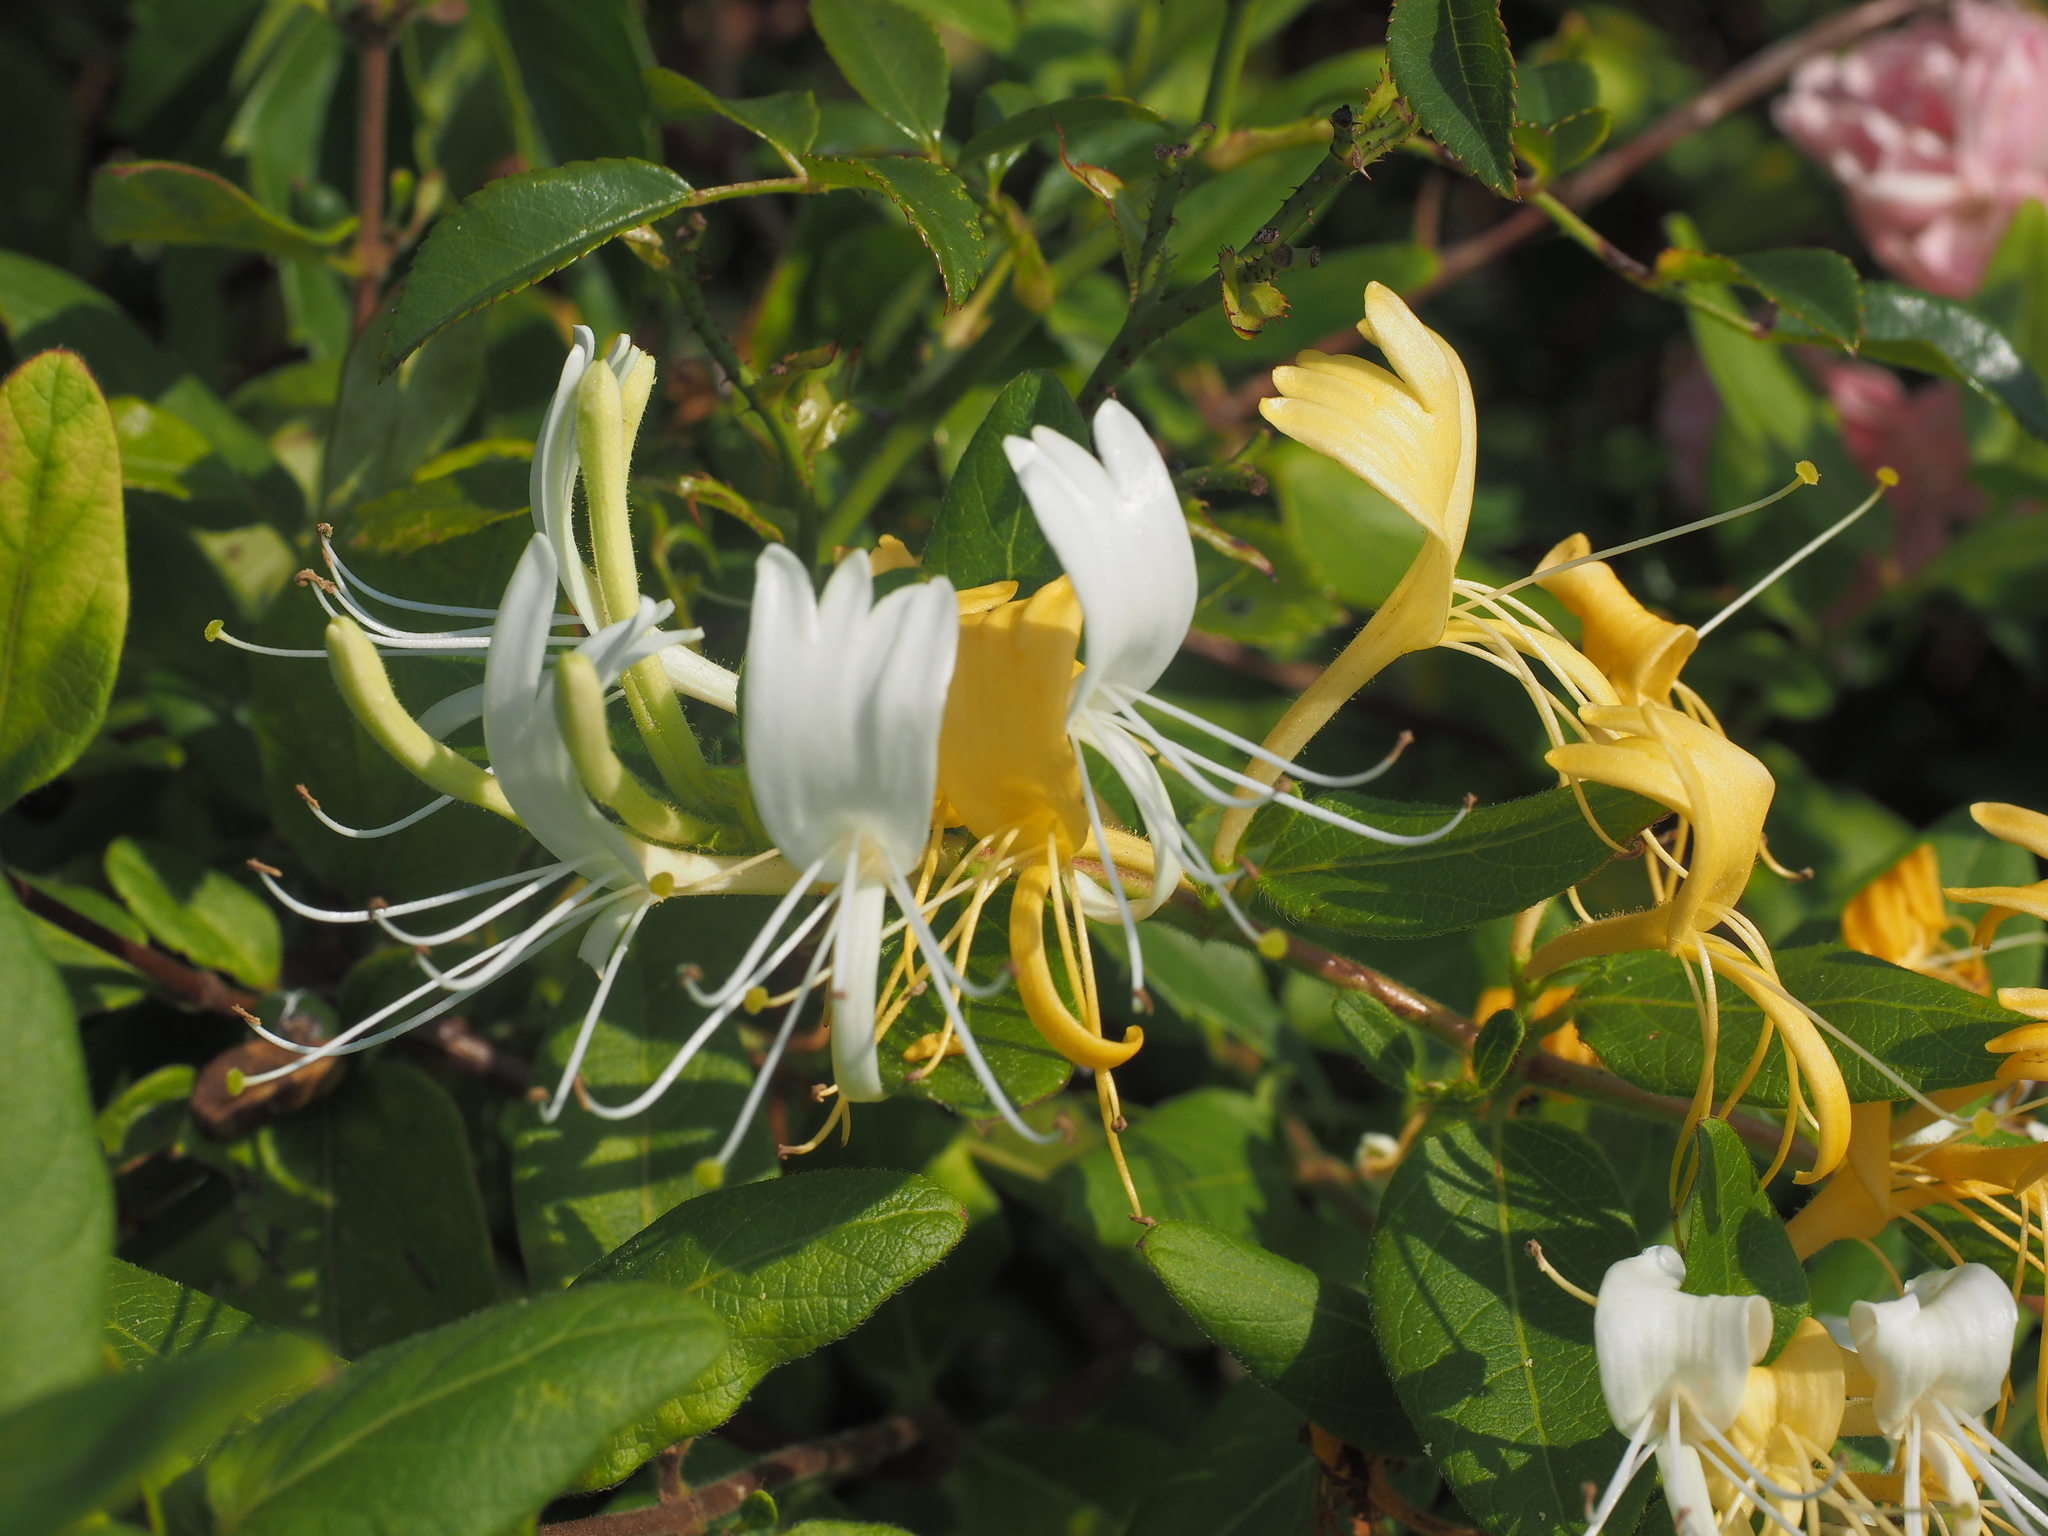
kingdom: Plantae
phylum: Tracheophyta
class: Magnoliopsida
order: Dipsacales
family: Caprifoliaceae
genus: Lonicera
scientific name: Lonicera japonica
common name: Japanese honeysuckle
